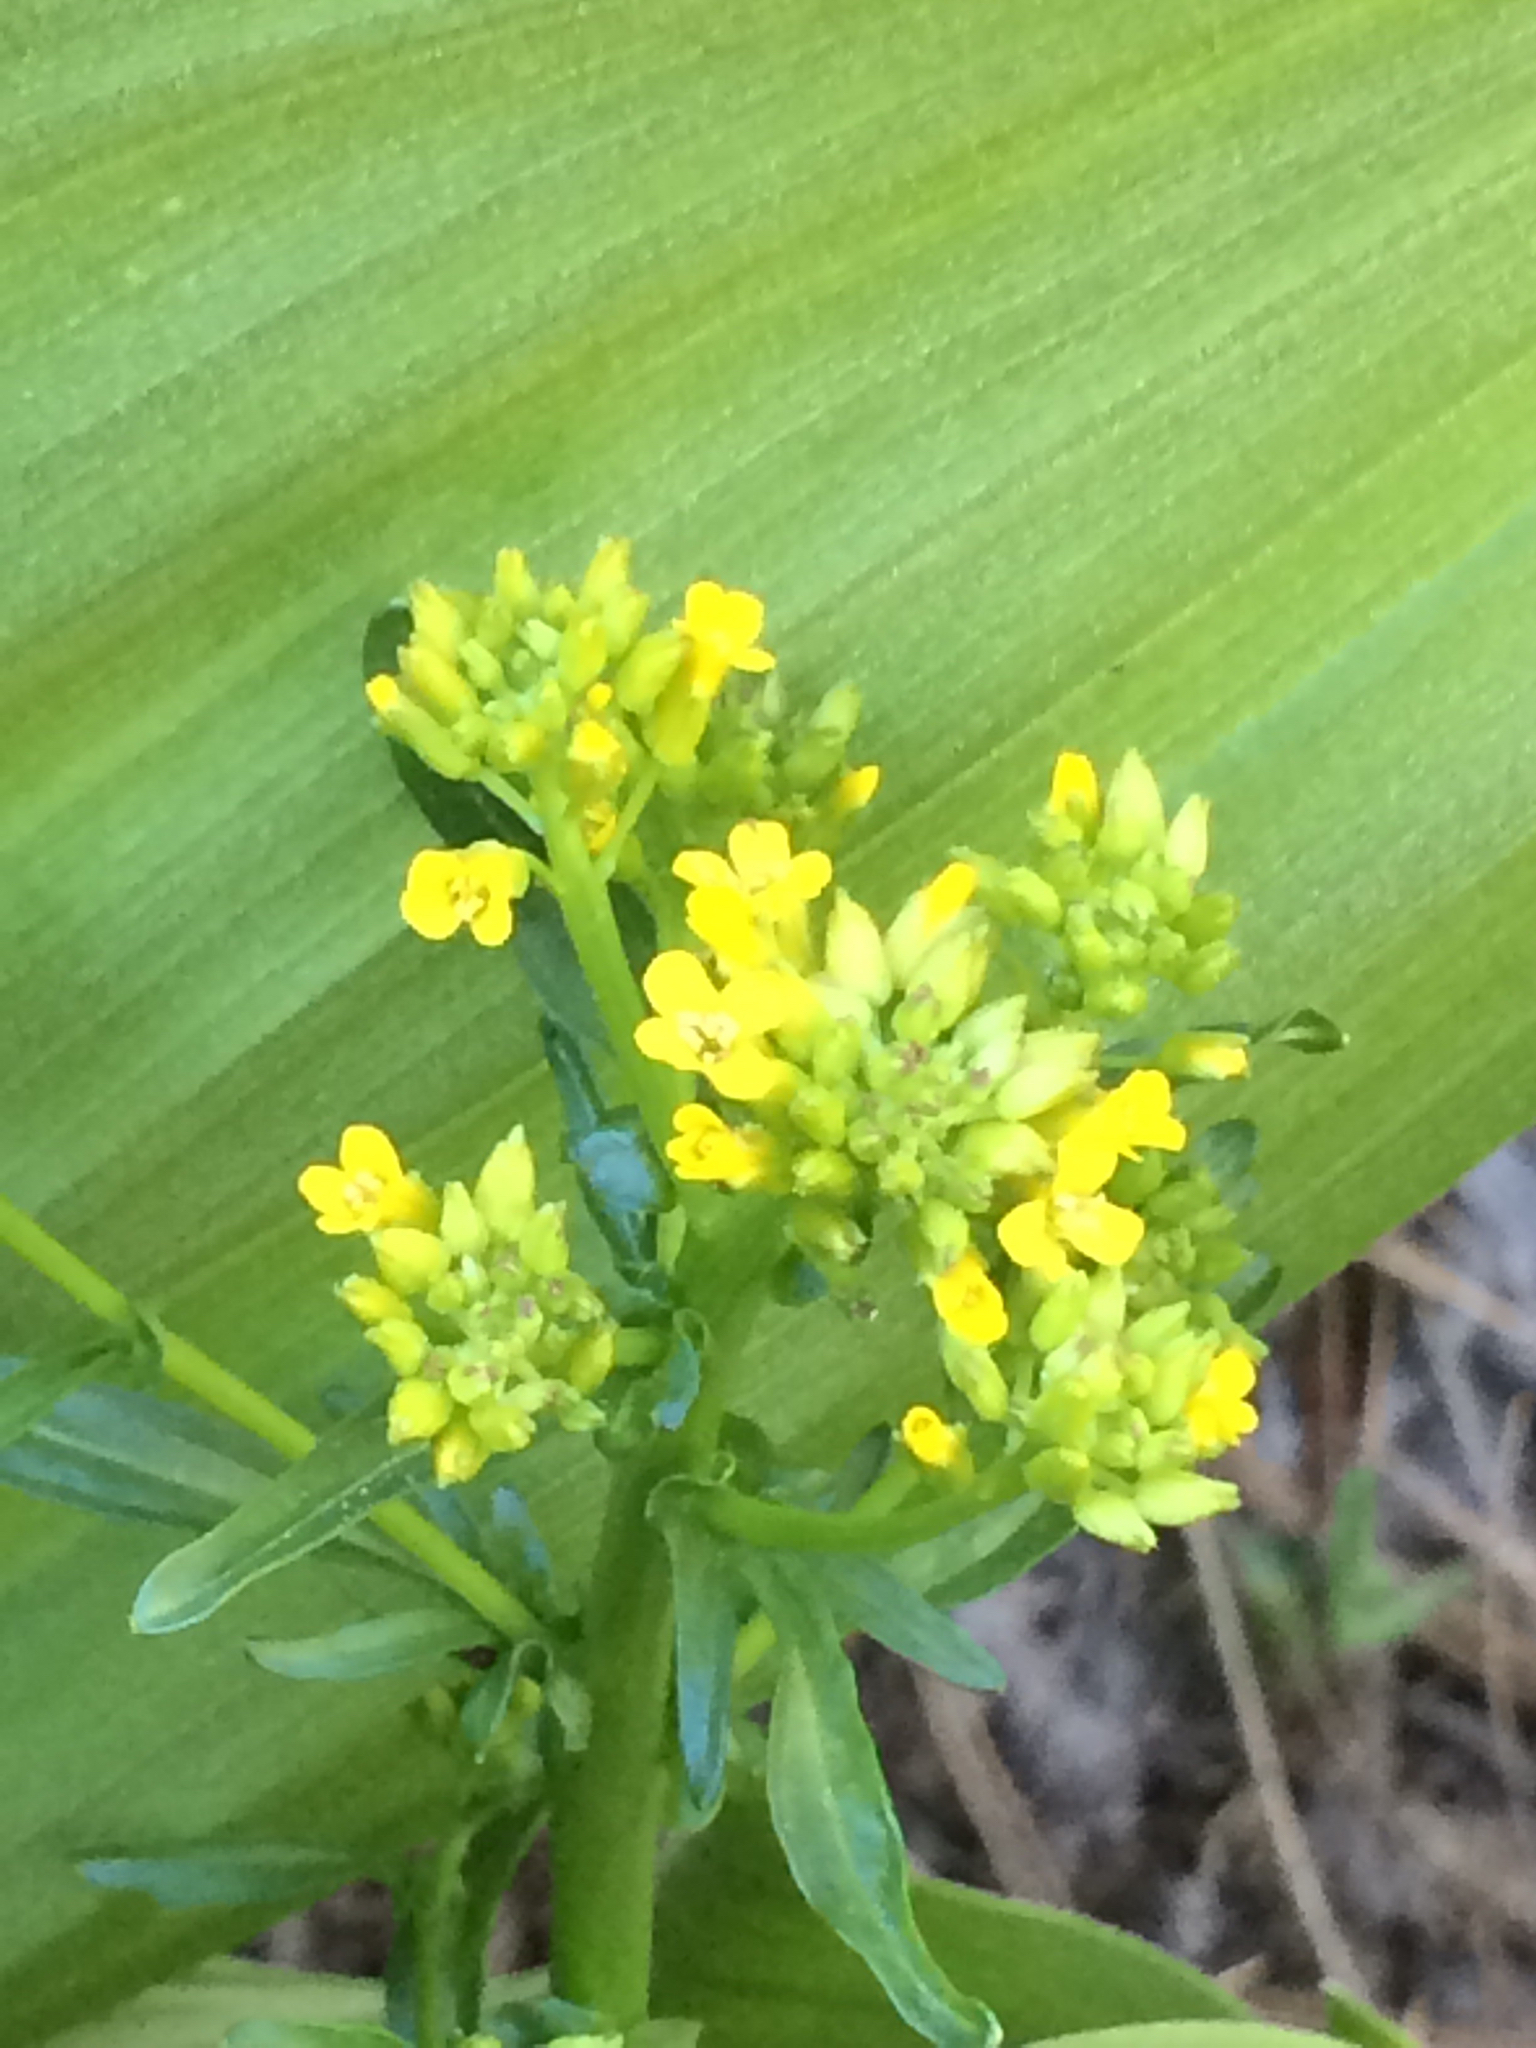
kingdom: Plantae
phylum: Tracheophyta
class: Magnoliopsida
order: Brassicales
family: Brassicaceae
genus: Barbarea
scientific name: Barbarea orthoceras
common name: American wintercress
